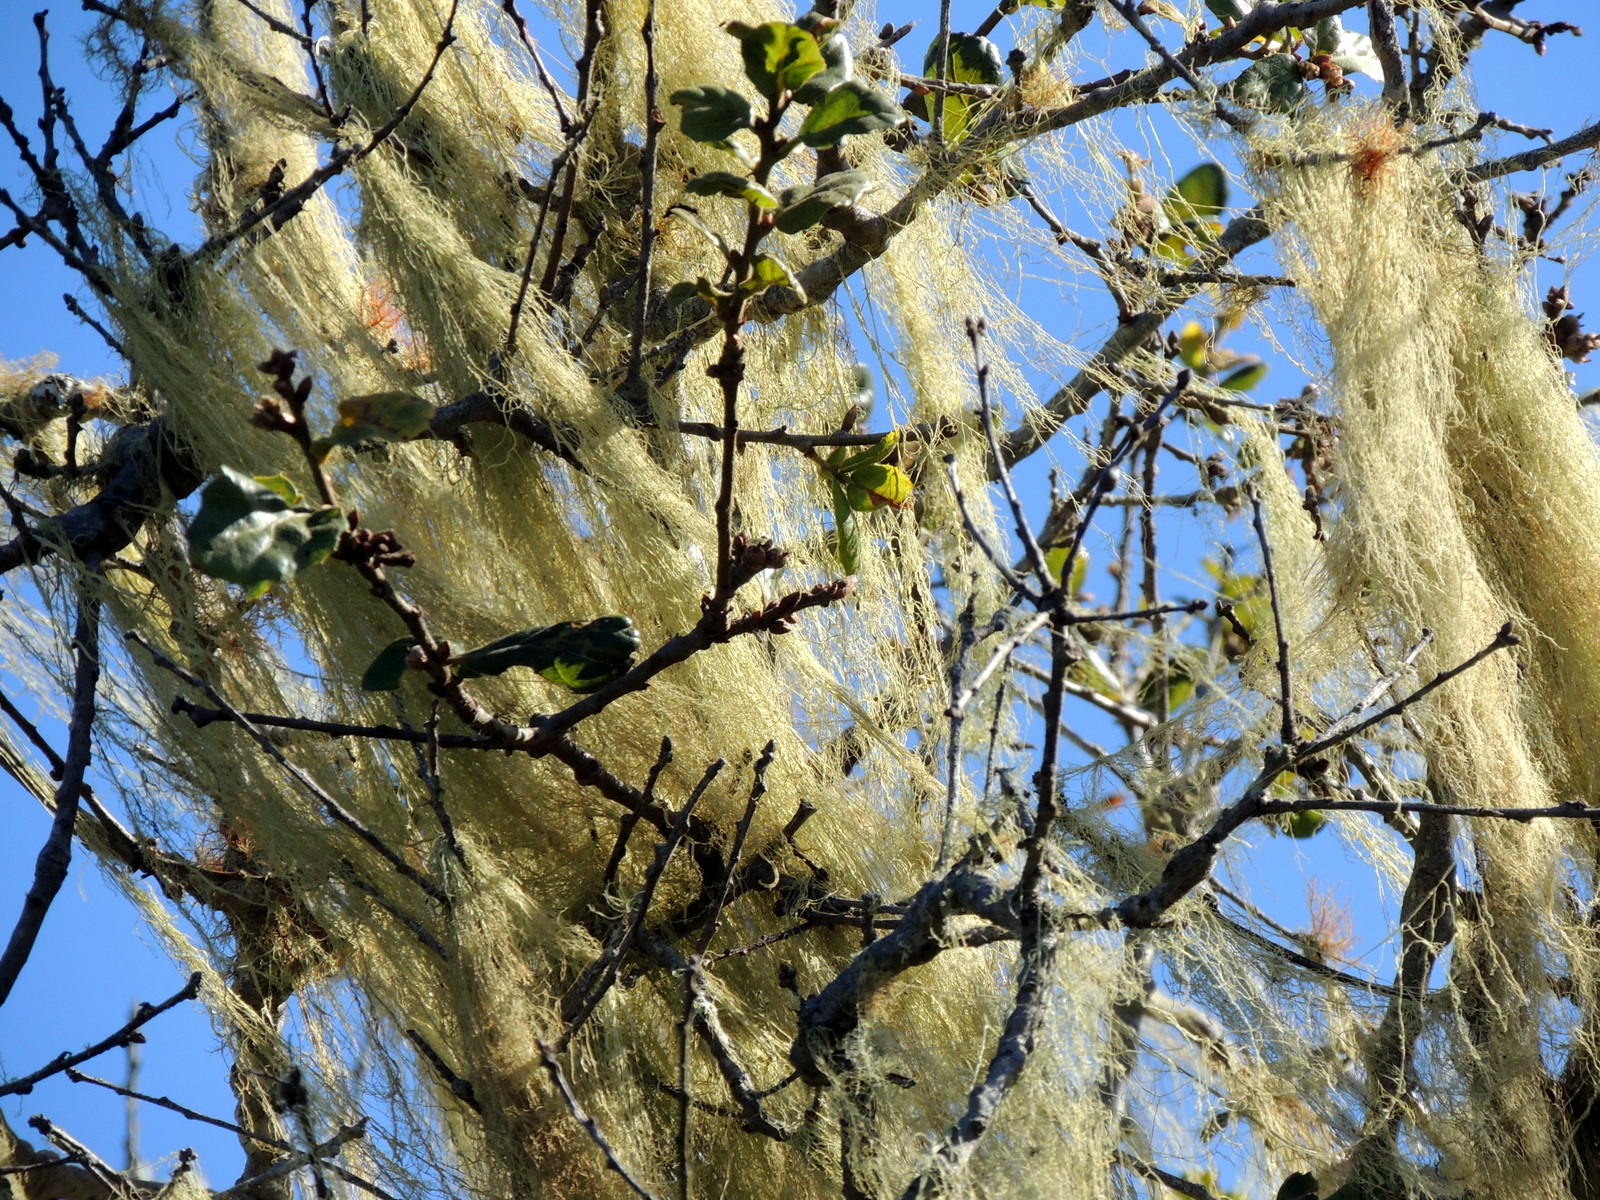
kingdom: Fungi
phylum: Ascomycota
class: Lecanoromycetes
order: Lecanorales
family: Ramalinaceae
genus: Ramalina
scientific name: Ramalina menziesii
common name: Lace lichen
